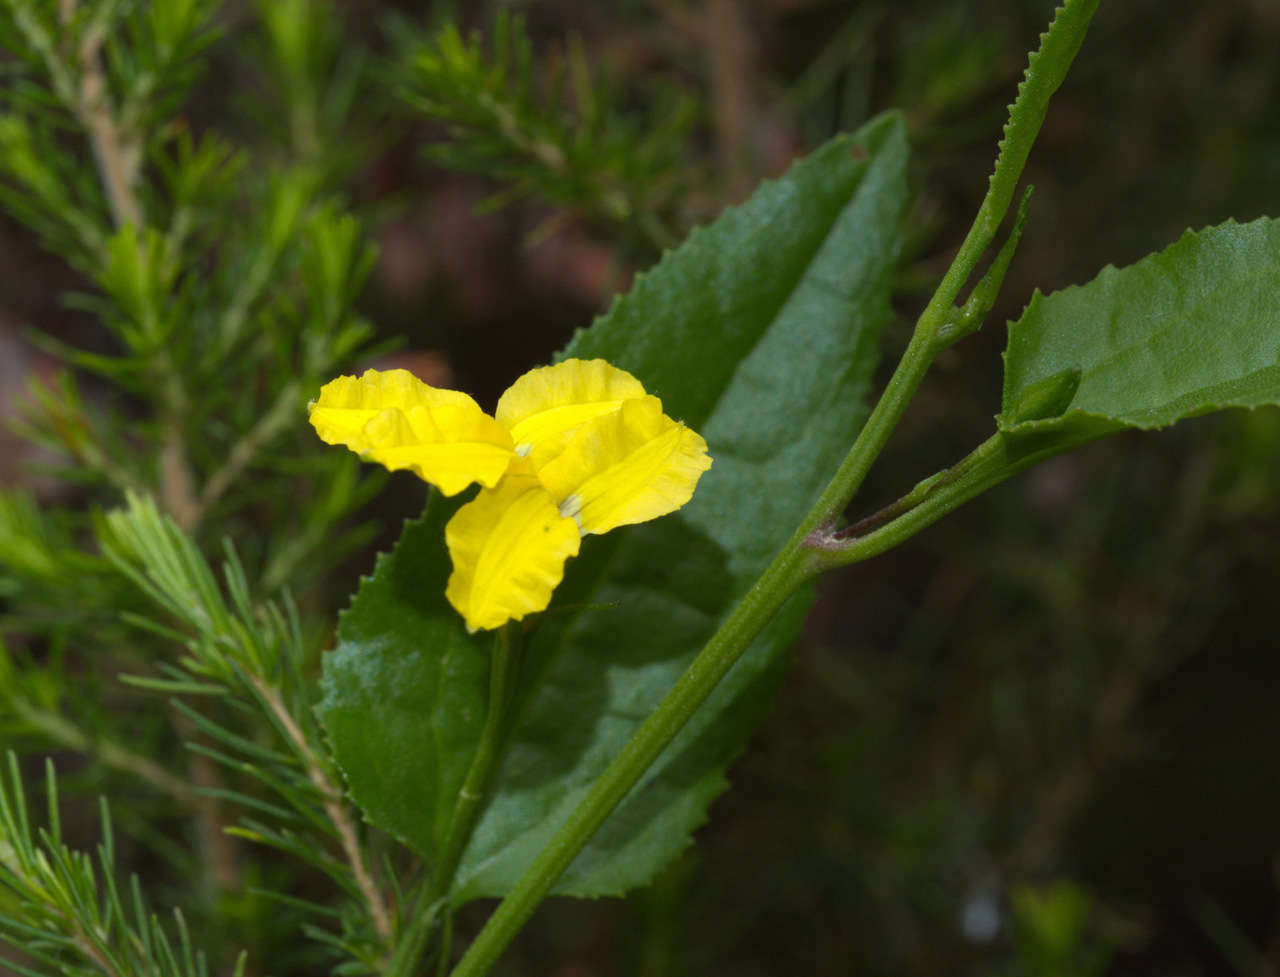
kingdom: Plantae
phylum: Tracheophyta
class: Magnoliopsida
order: Asterales
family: Goodeniaceae
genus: Goodenia
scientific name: Goodenia ovata
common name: Hop goodenia
